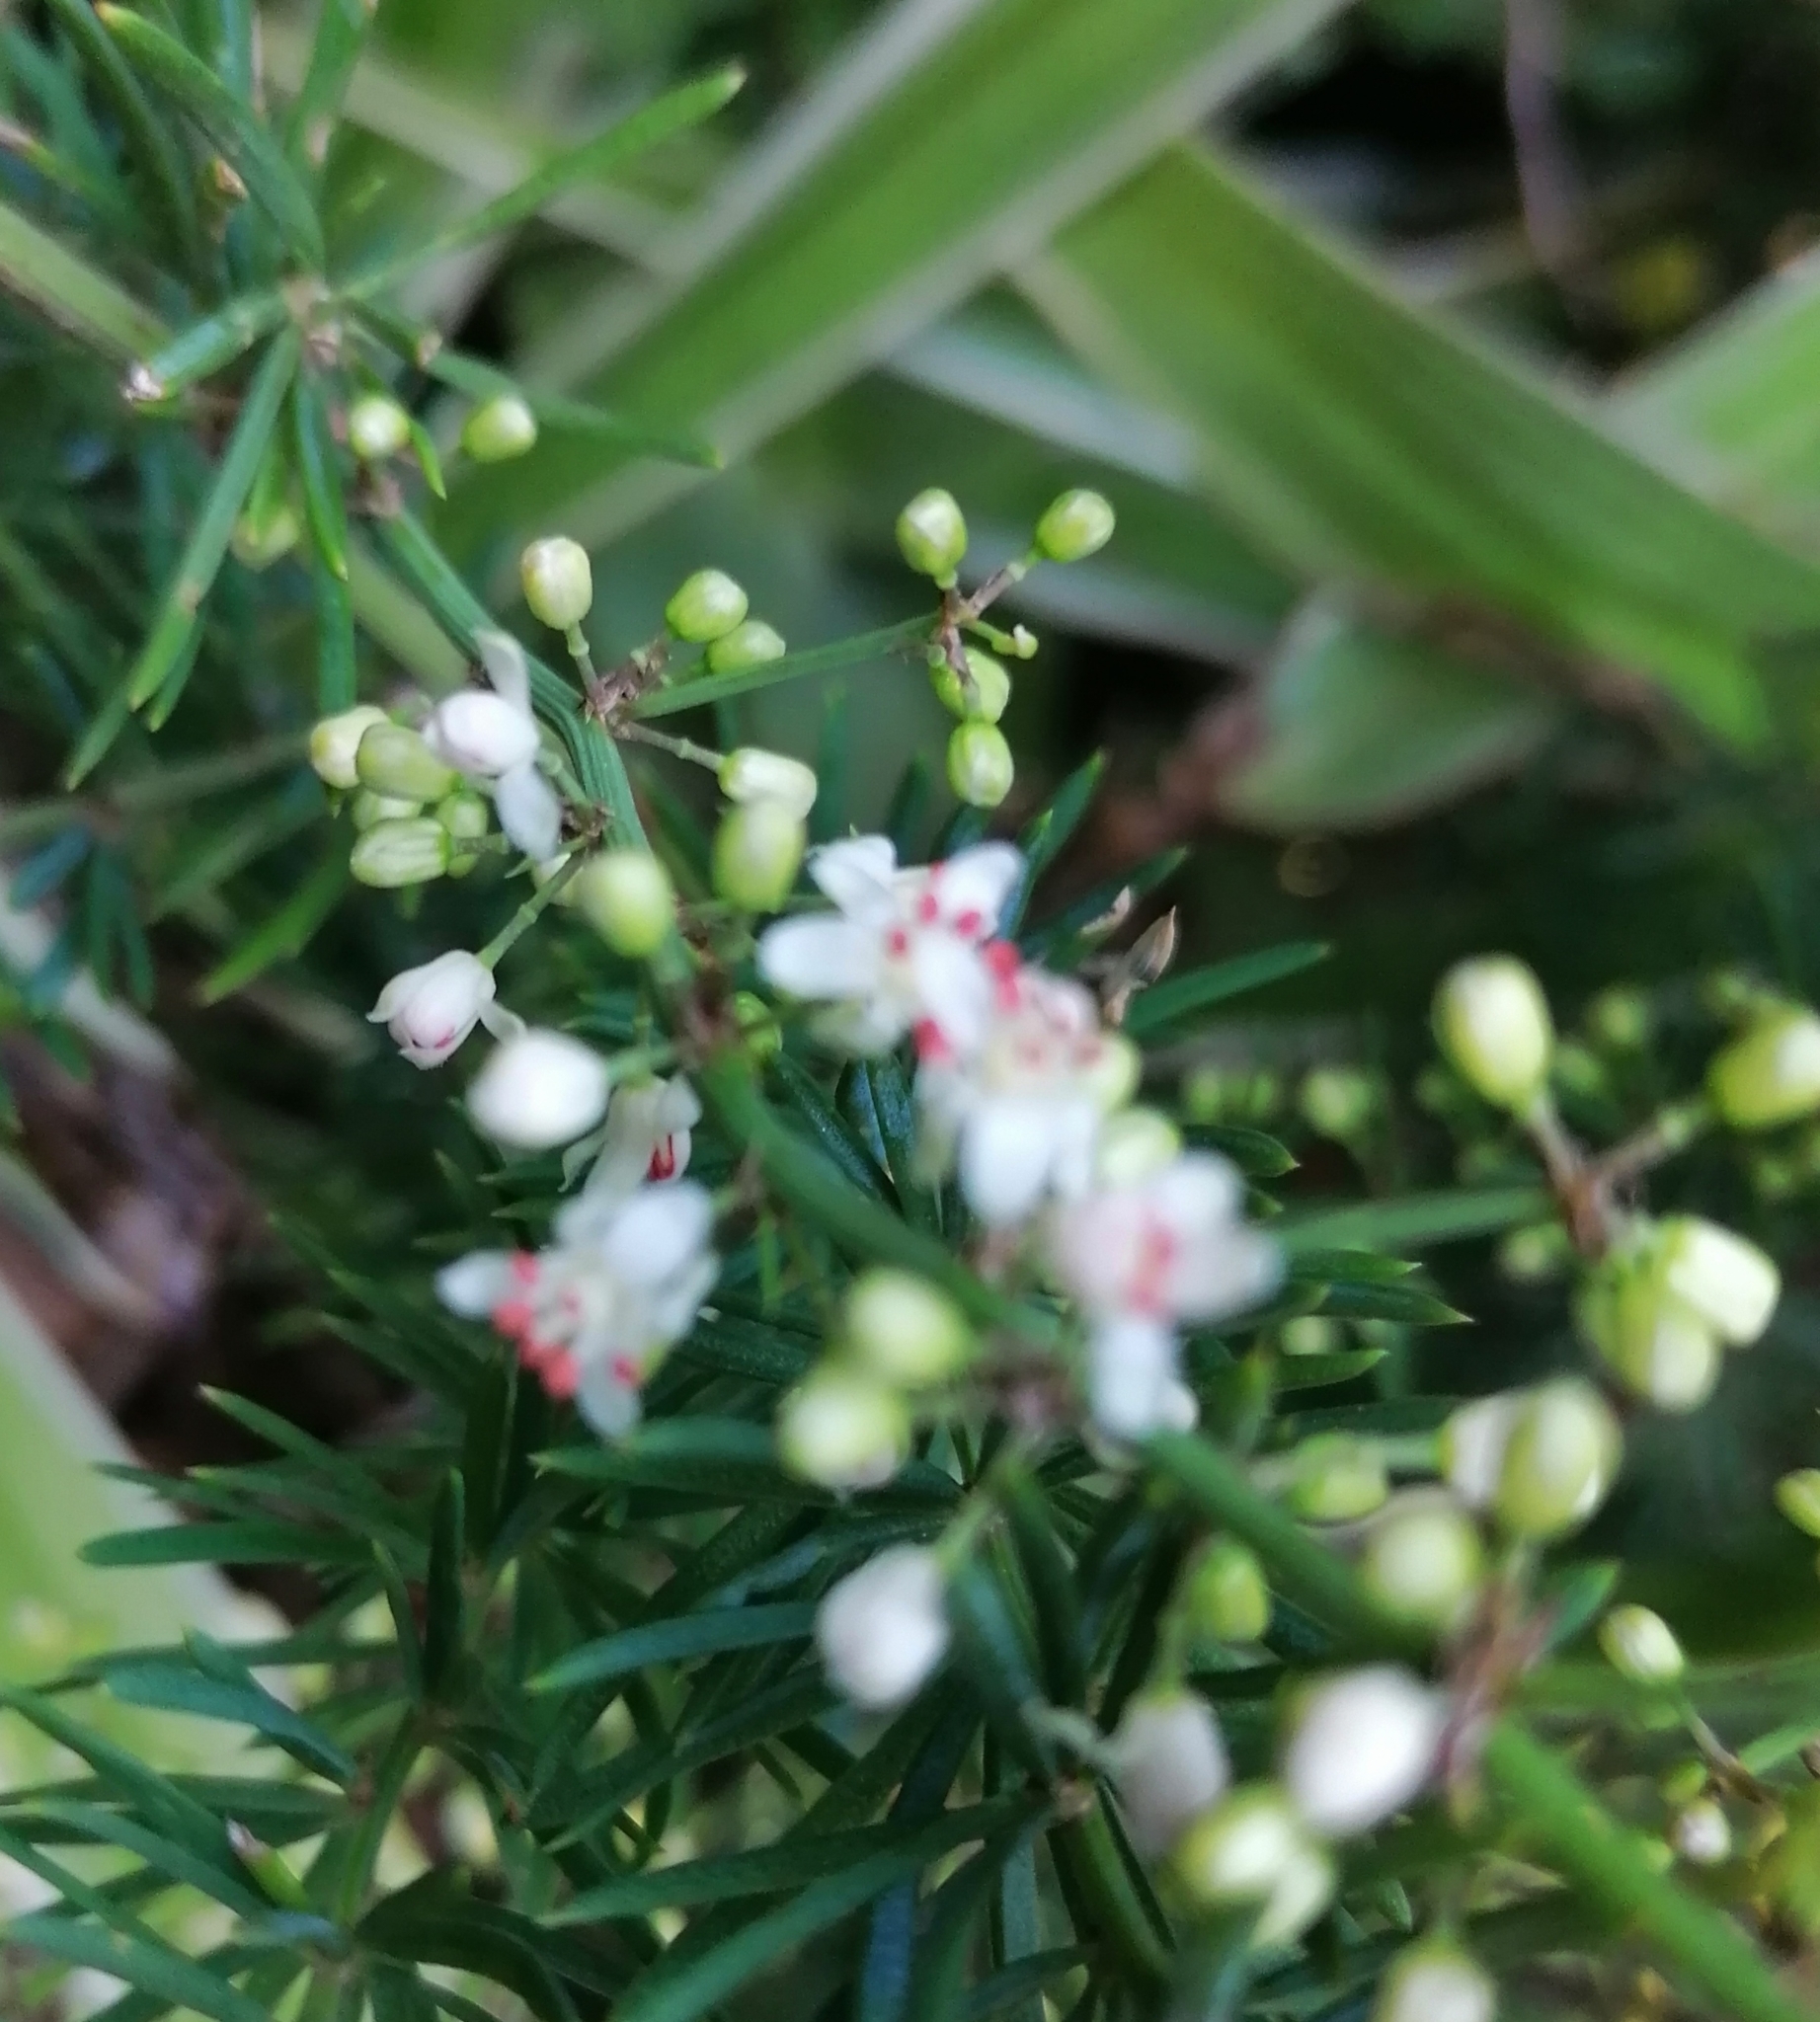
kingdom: Plantae
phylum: Tracheophyta
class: Liliopsida
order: Asparagales
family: Asparagaceae
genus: Asparagus
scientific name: Asparagus aethiopicus
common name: Sprenger's asparagus fern
